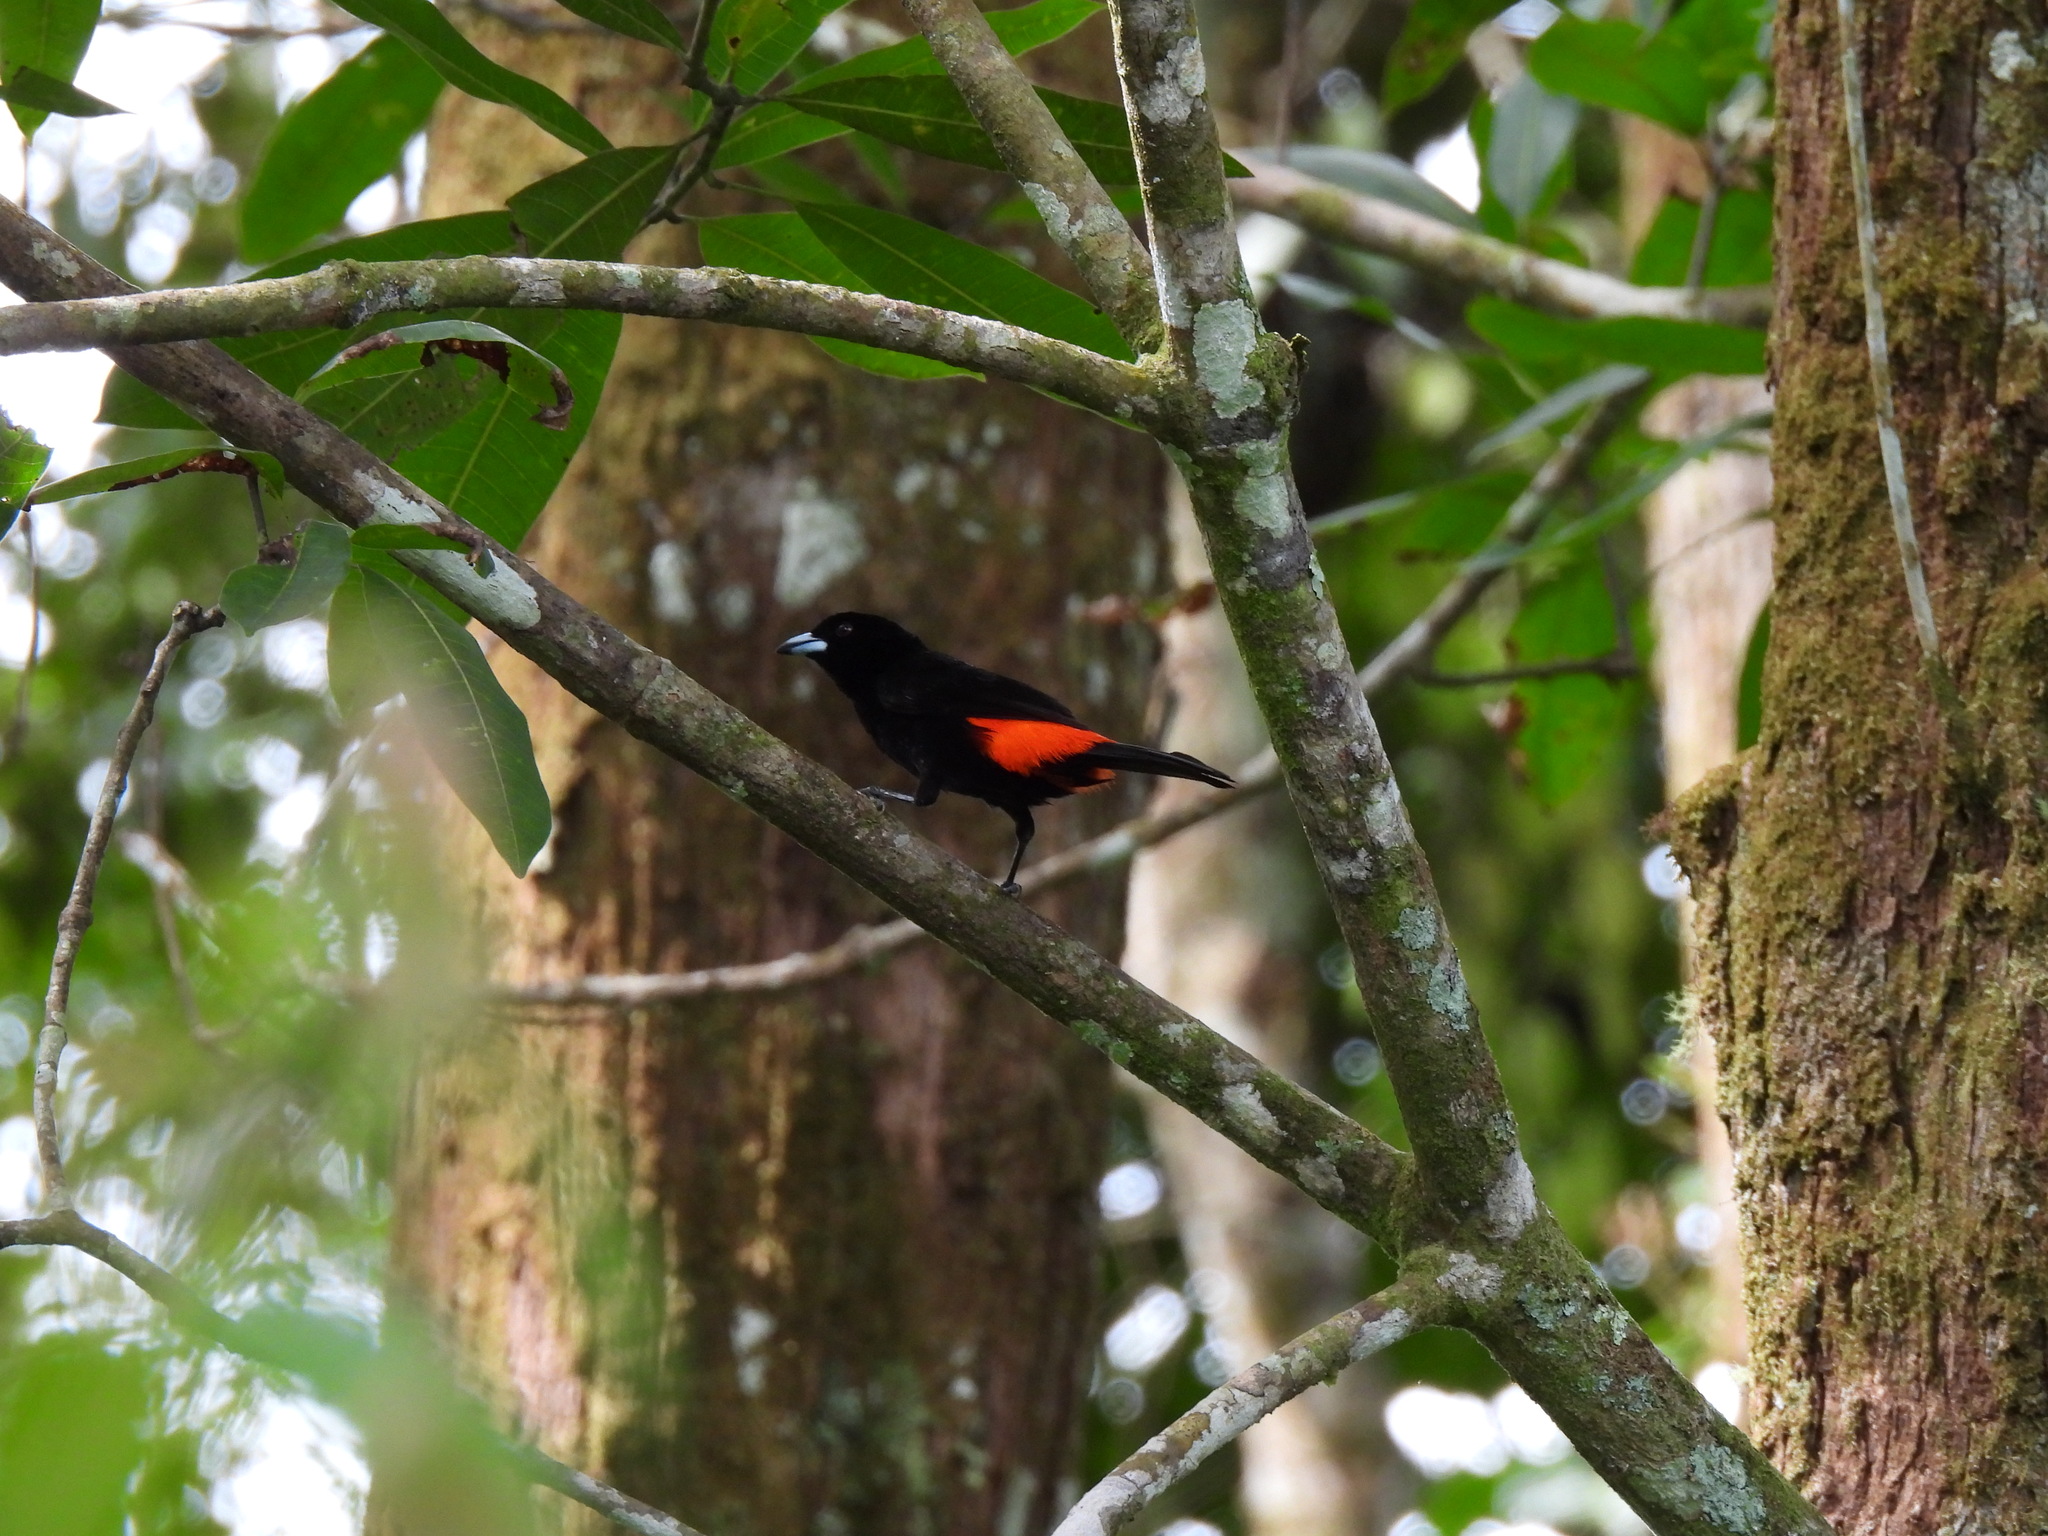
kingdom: Animalia
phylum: Chordata
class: Aves
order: Passeriformes
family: Thraupidae
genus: Ramphocelus
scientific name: Ramphocelus passerinii
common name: Passerini's tanager
